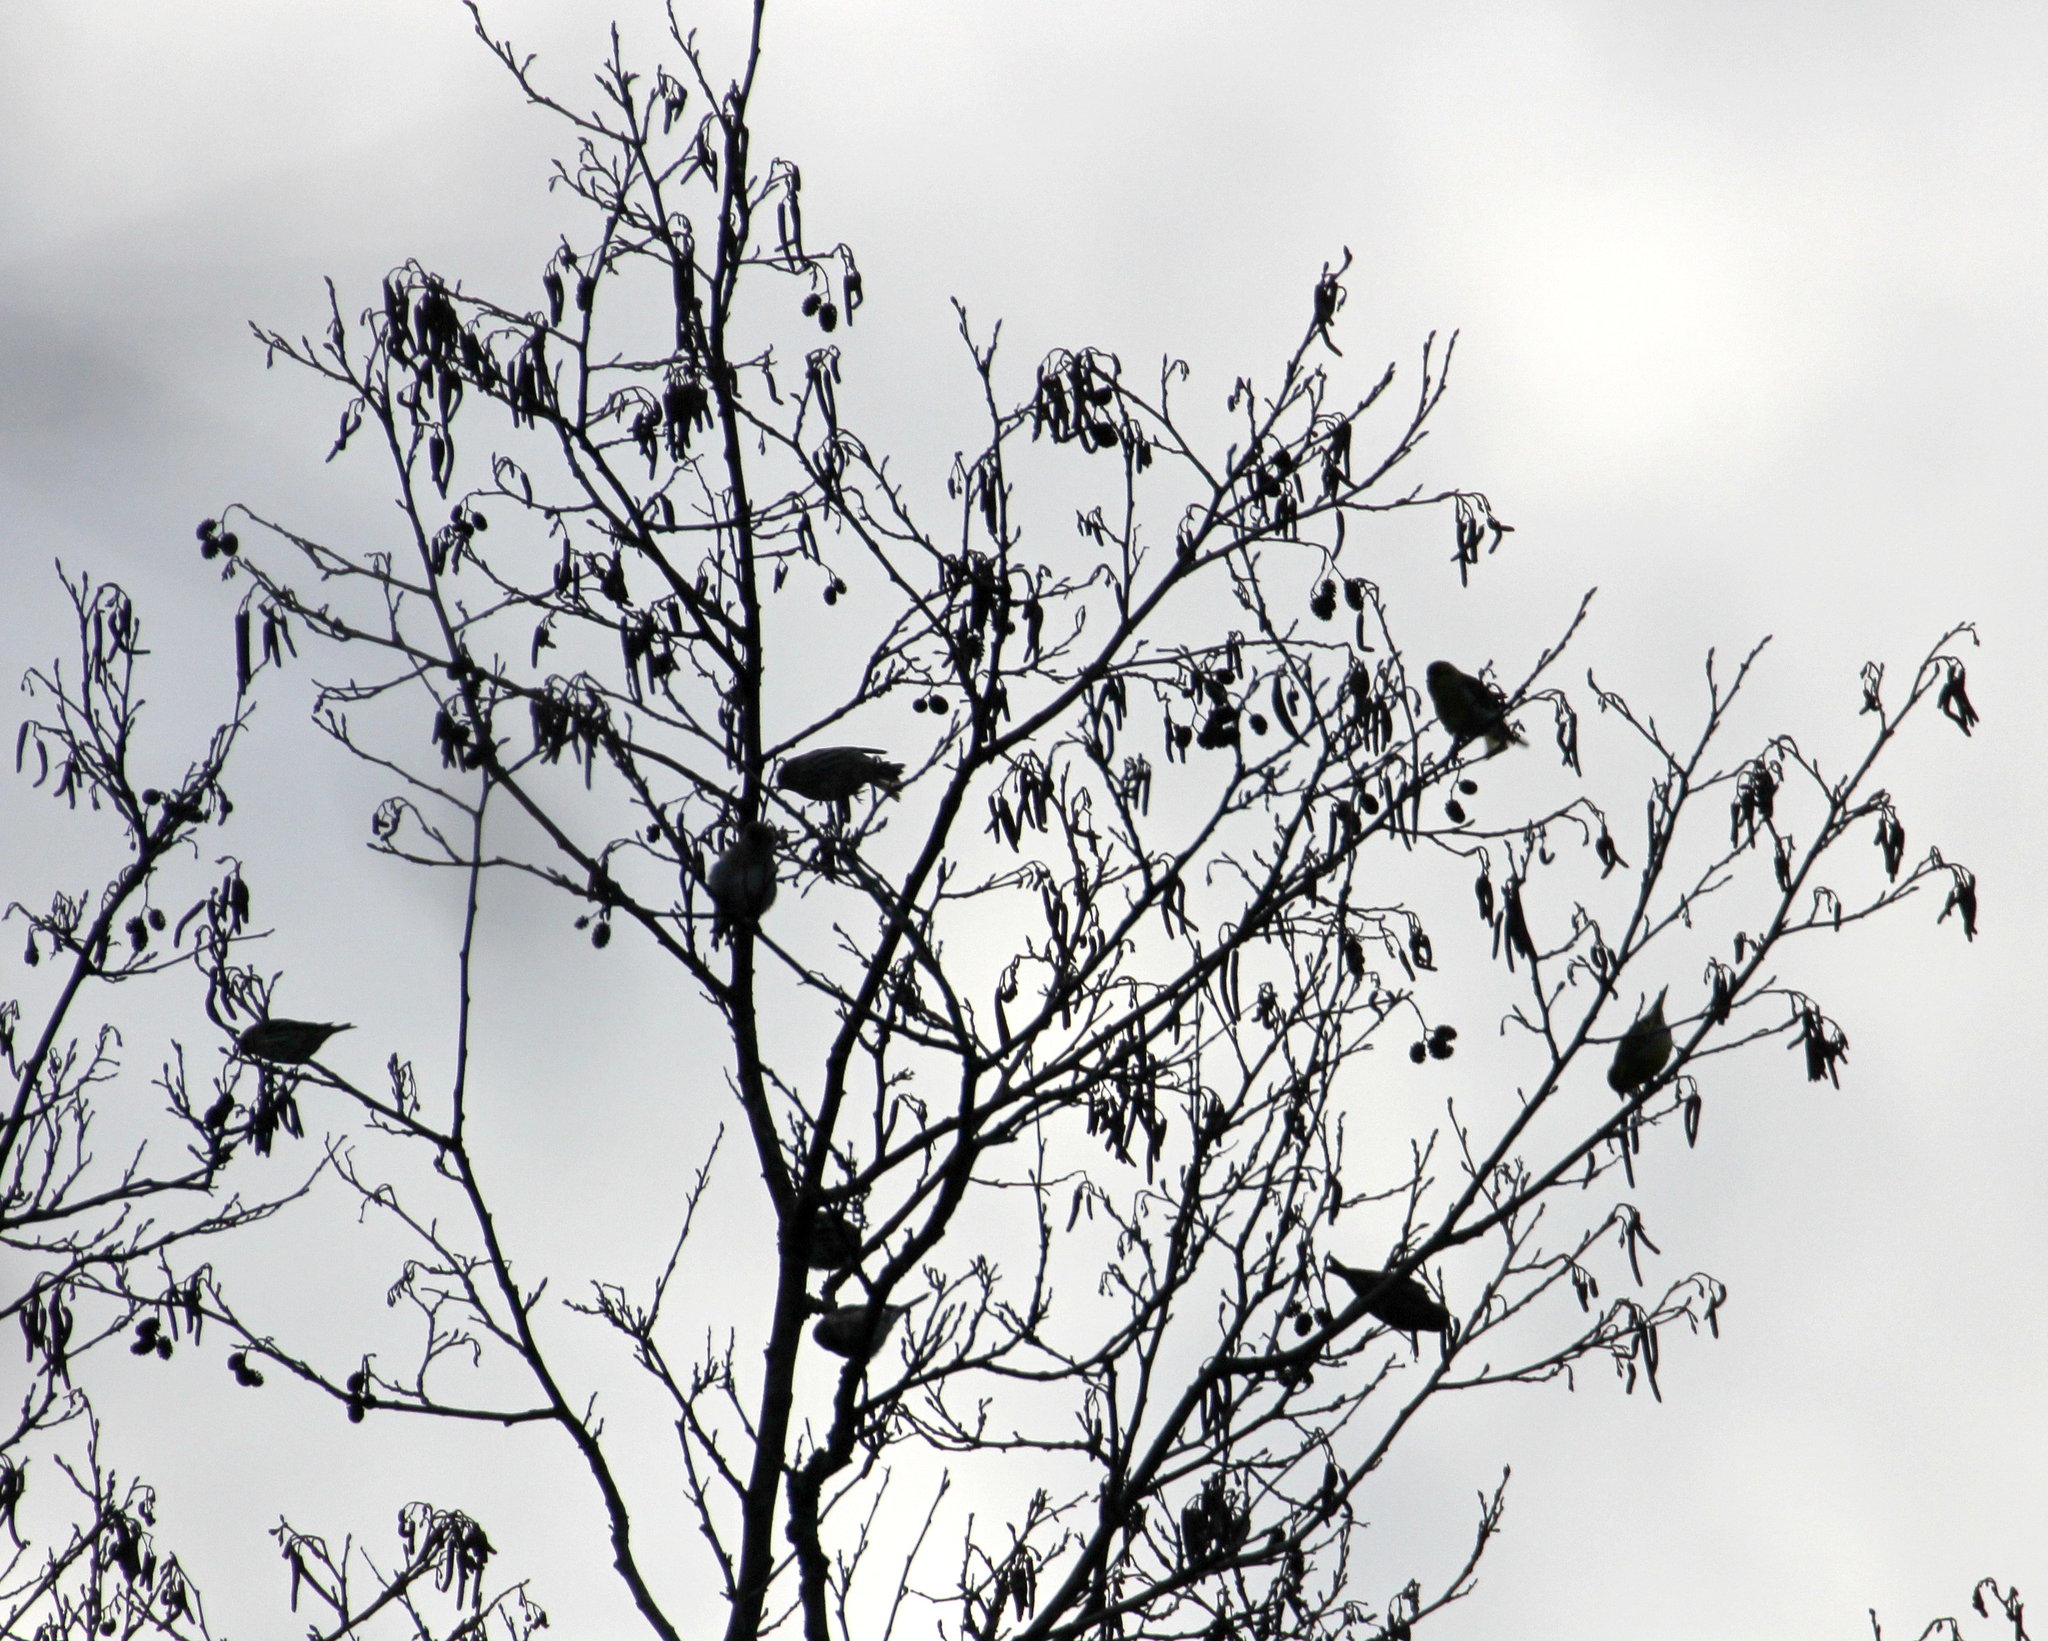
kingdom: Animalia
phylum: Chordata
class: Aves
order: Passeriformes
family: Fringillidae
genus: Spinus
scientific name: Spinus spinus
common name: Eurasian siskin
